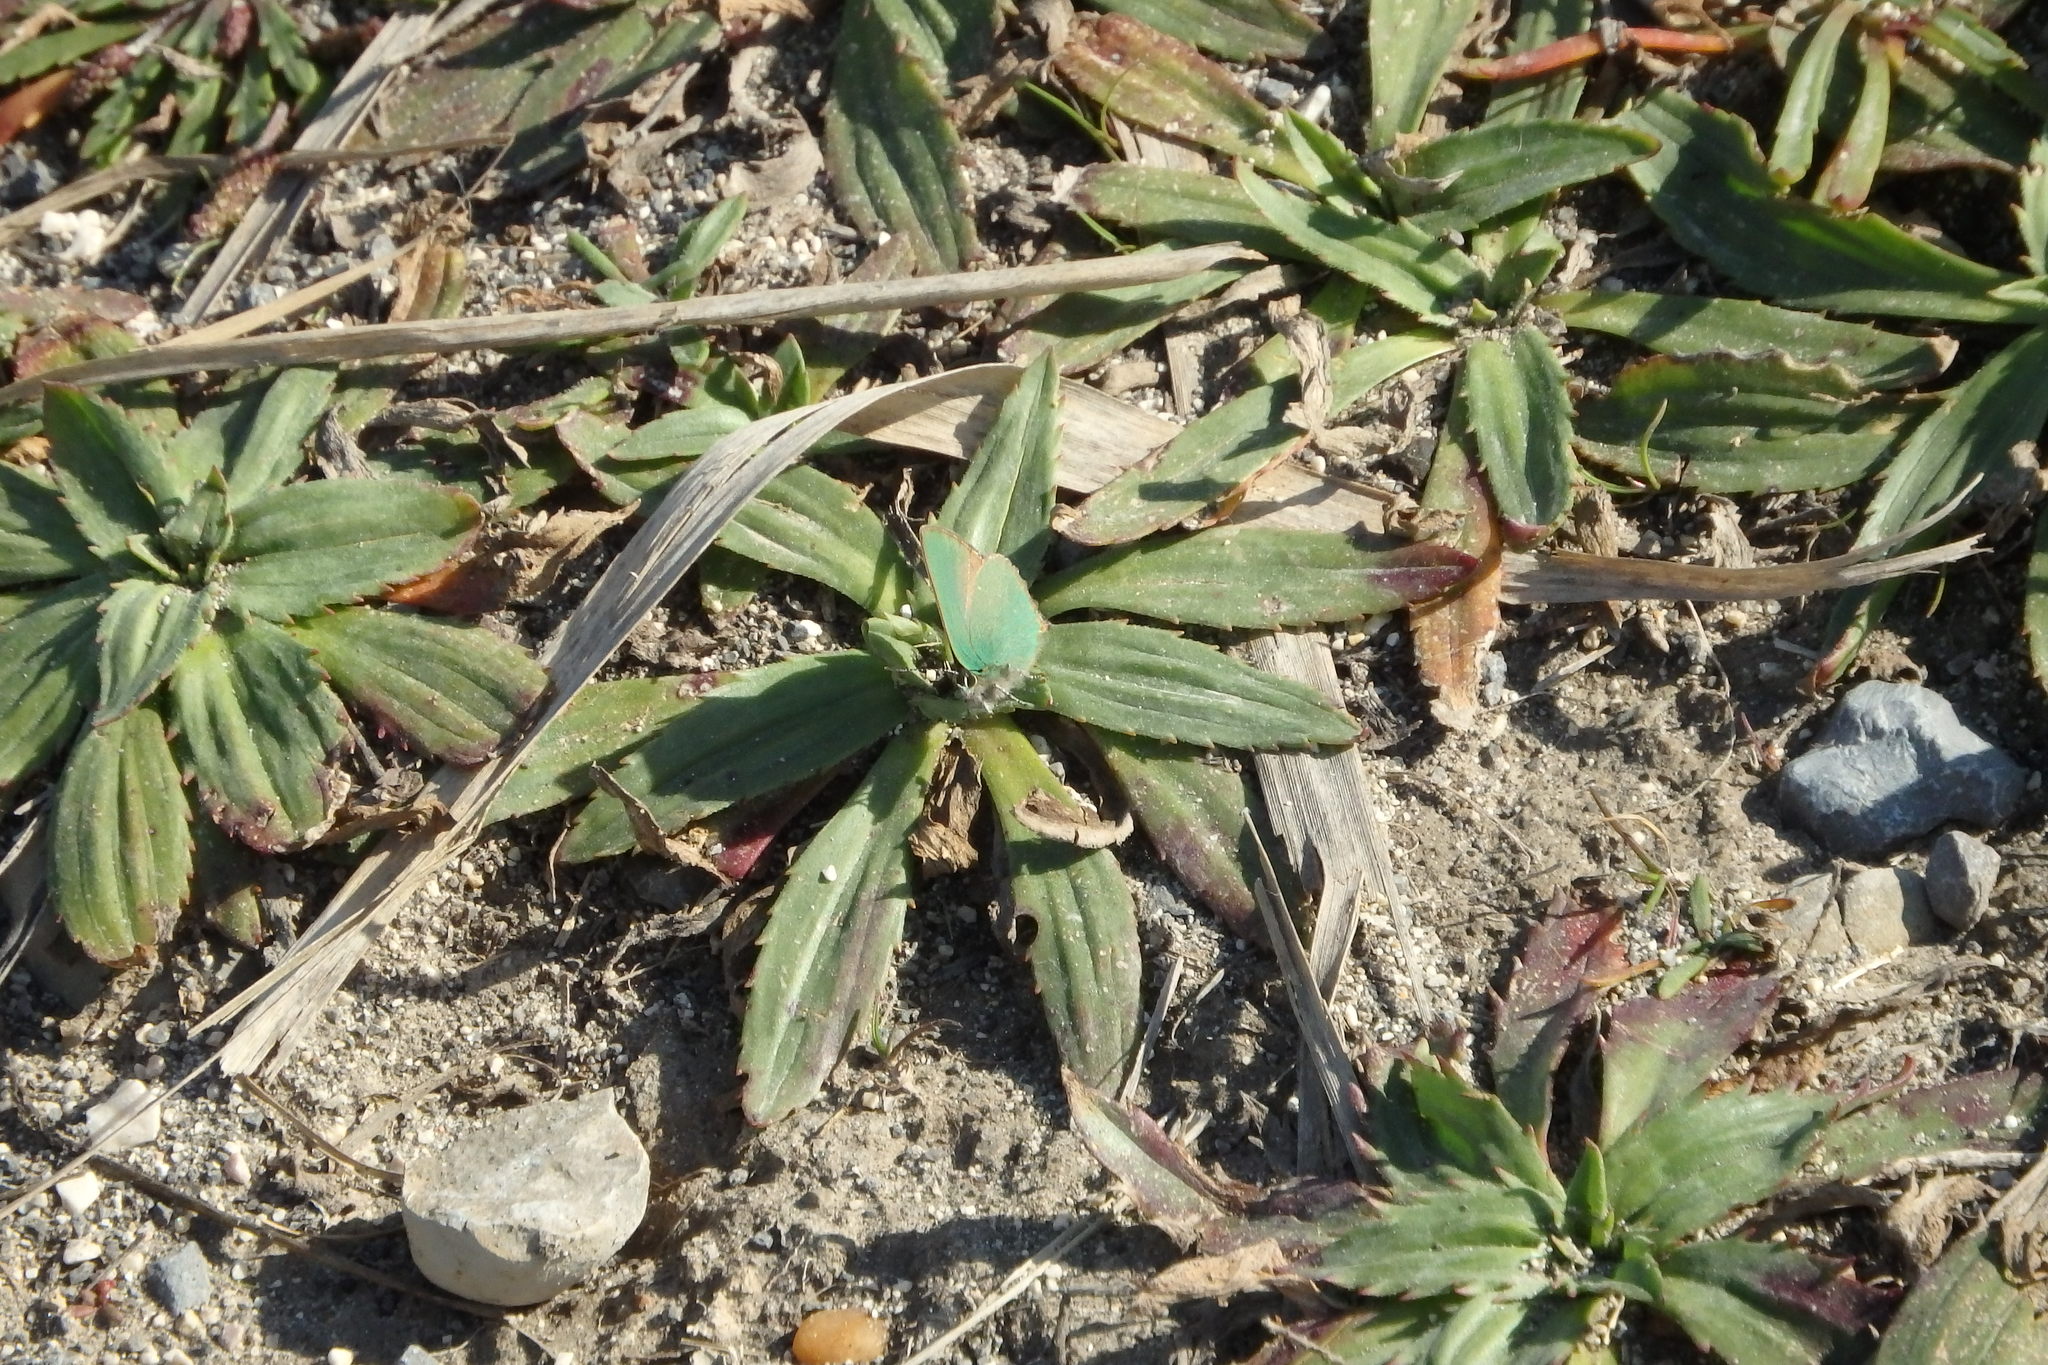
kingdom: Plantae
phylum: Tracheophyta
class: Magnoliopsida
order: Lamiales
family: Plantaginaceae
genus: Plantago
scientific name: Plantago serraria
